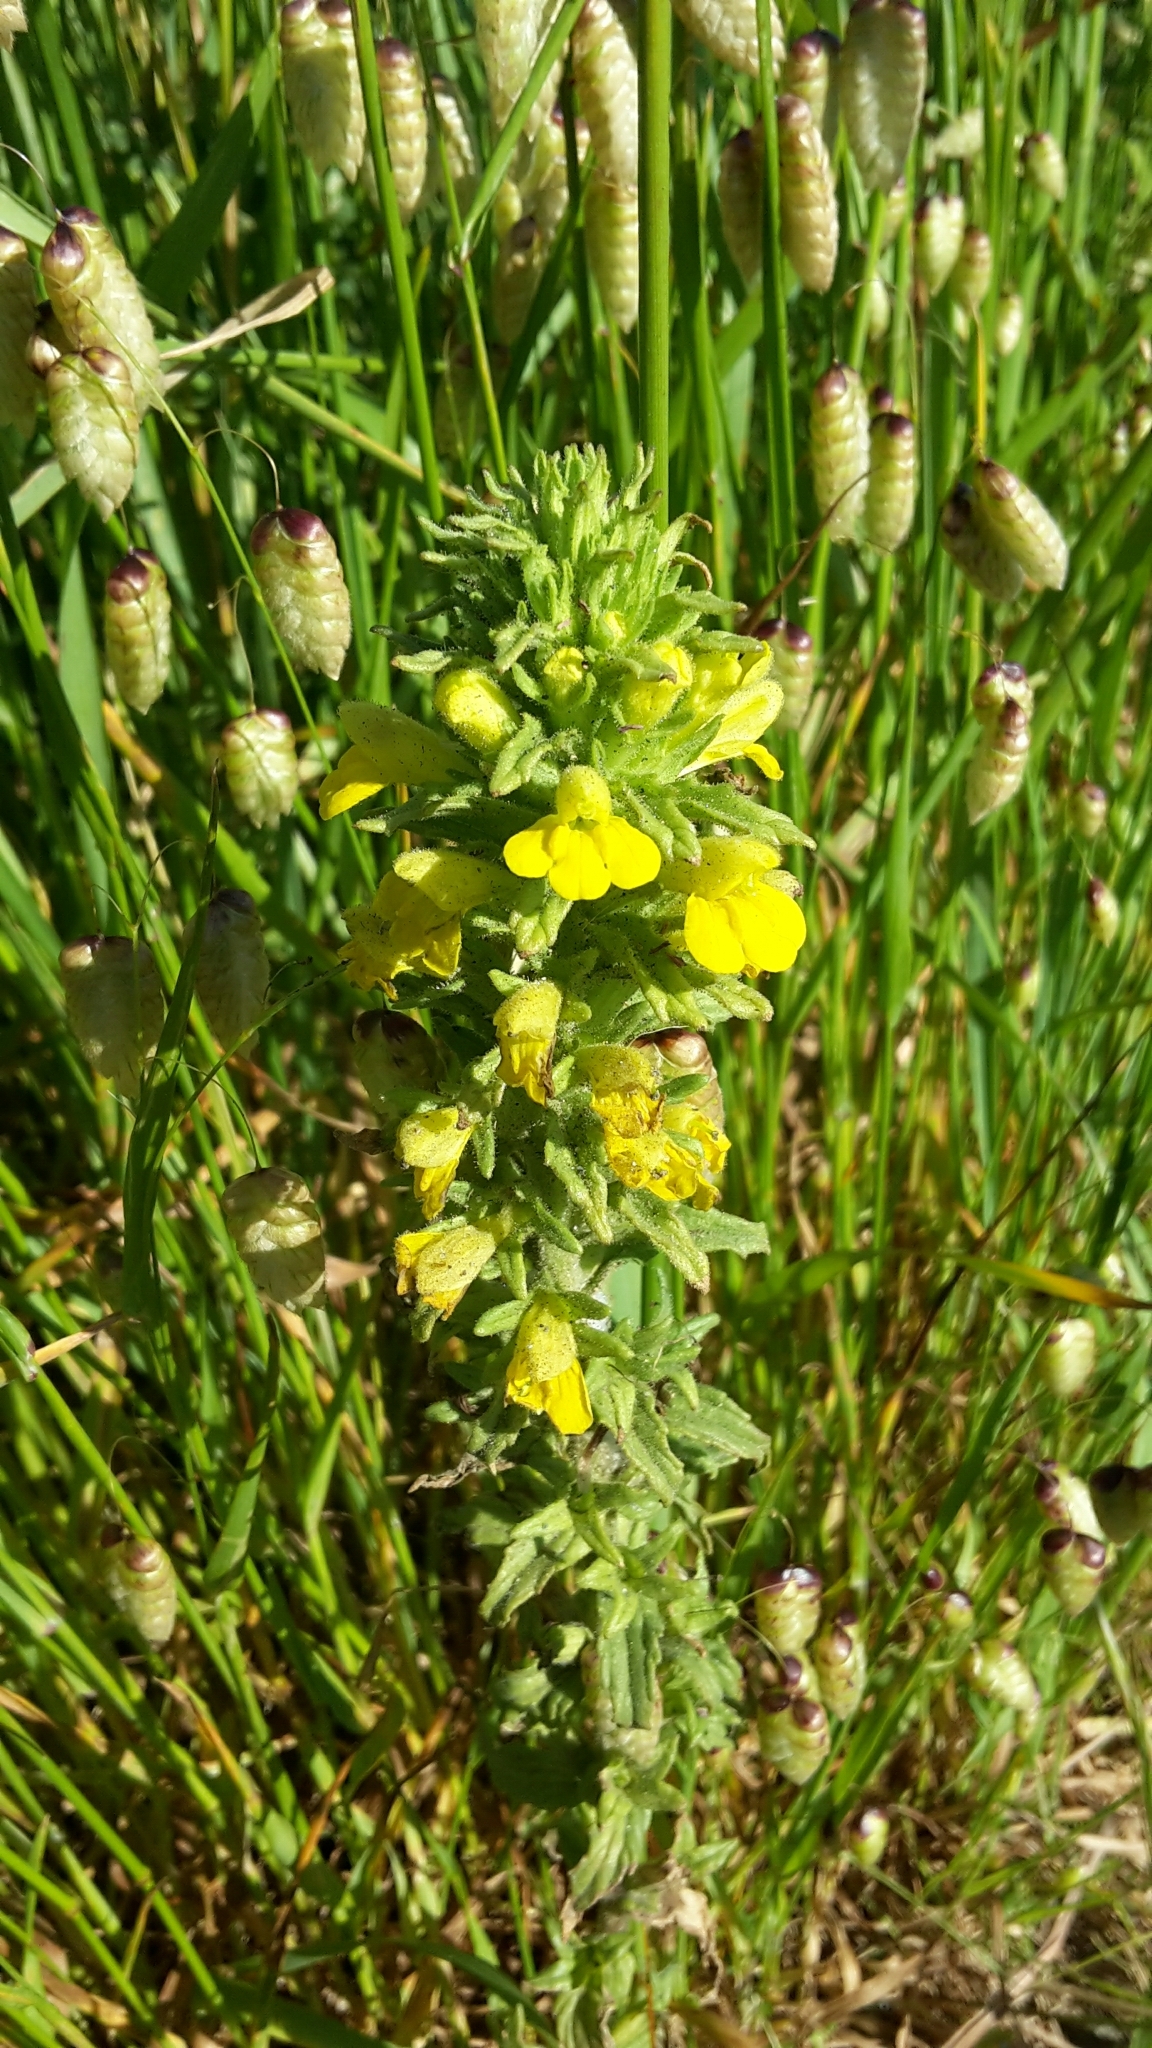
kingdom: Plantae
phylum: Tracheophyta
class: Magnoliopsida
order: Lamiales
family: Orobanchaceae
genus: Bellardia
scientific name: Bellardia viscosa
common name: Sticky parentucellia
